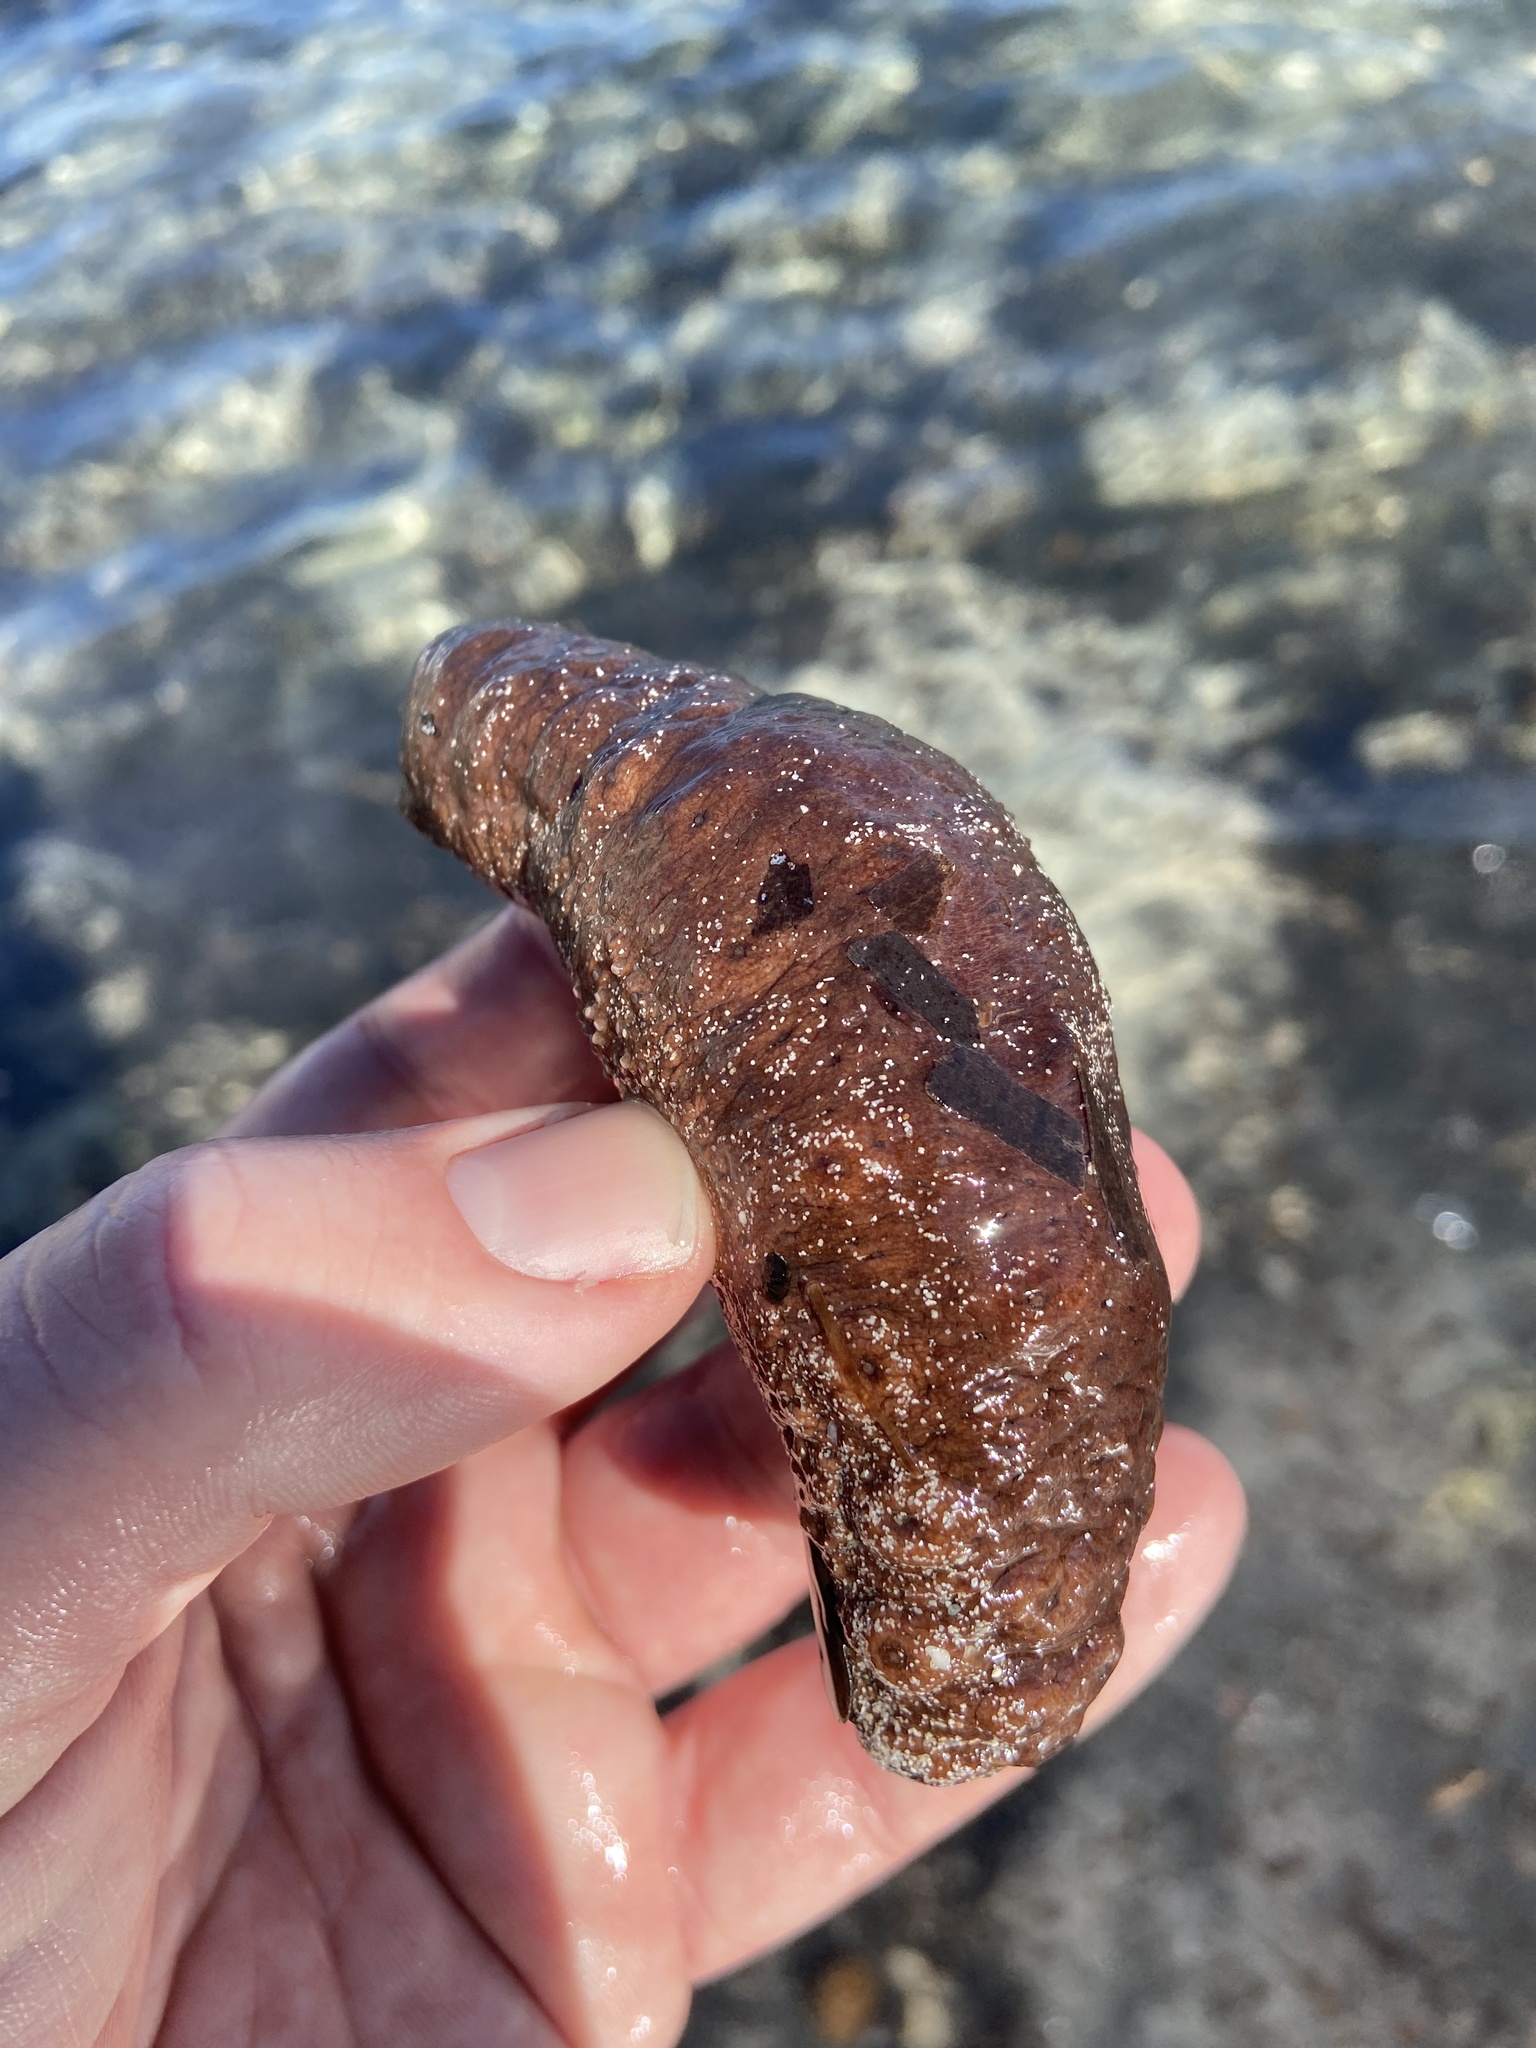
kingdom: Animalia
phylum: Echinodermata
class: Holothuroidea
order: Holothuriida
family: Holothuriidae
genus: Holothuria
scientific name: Holothuria sanctori
